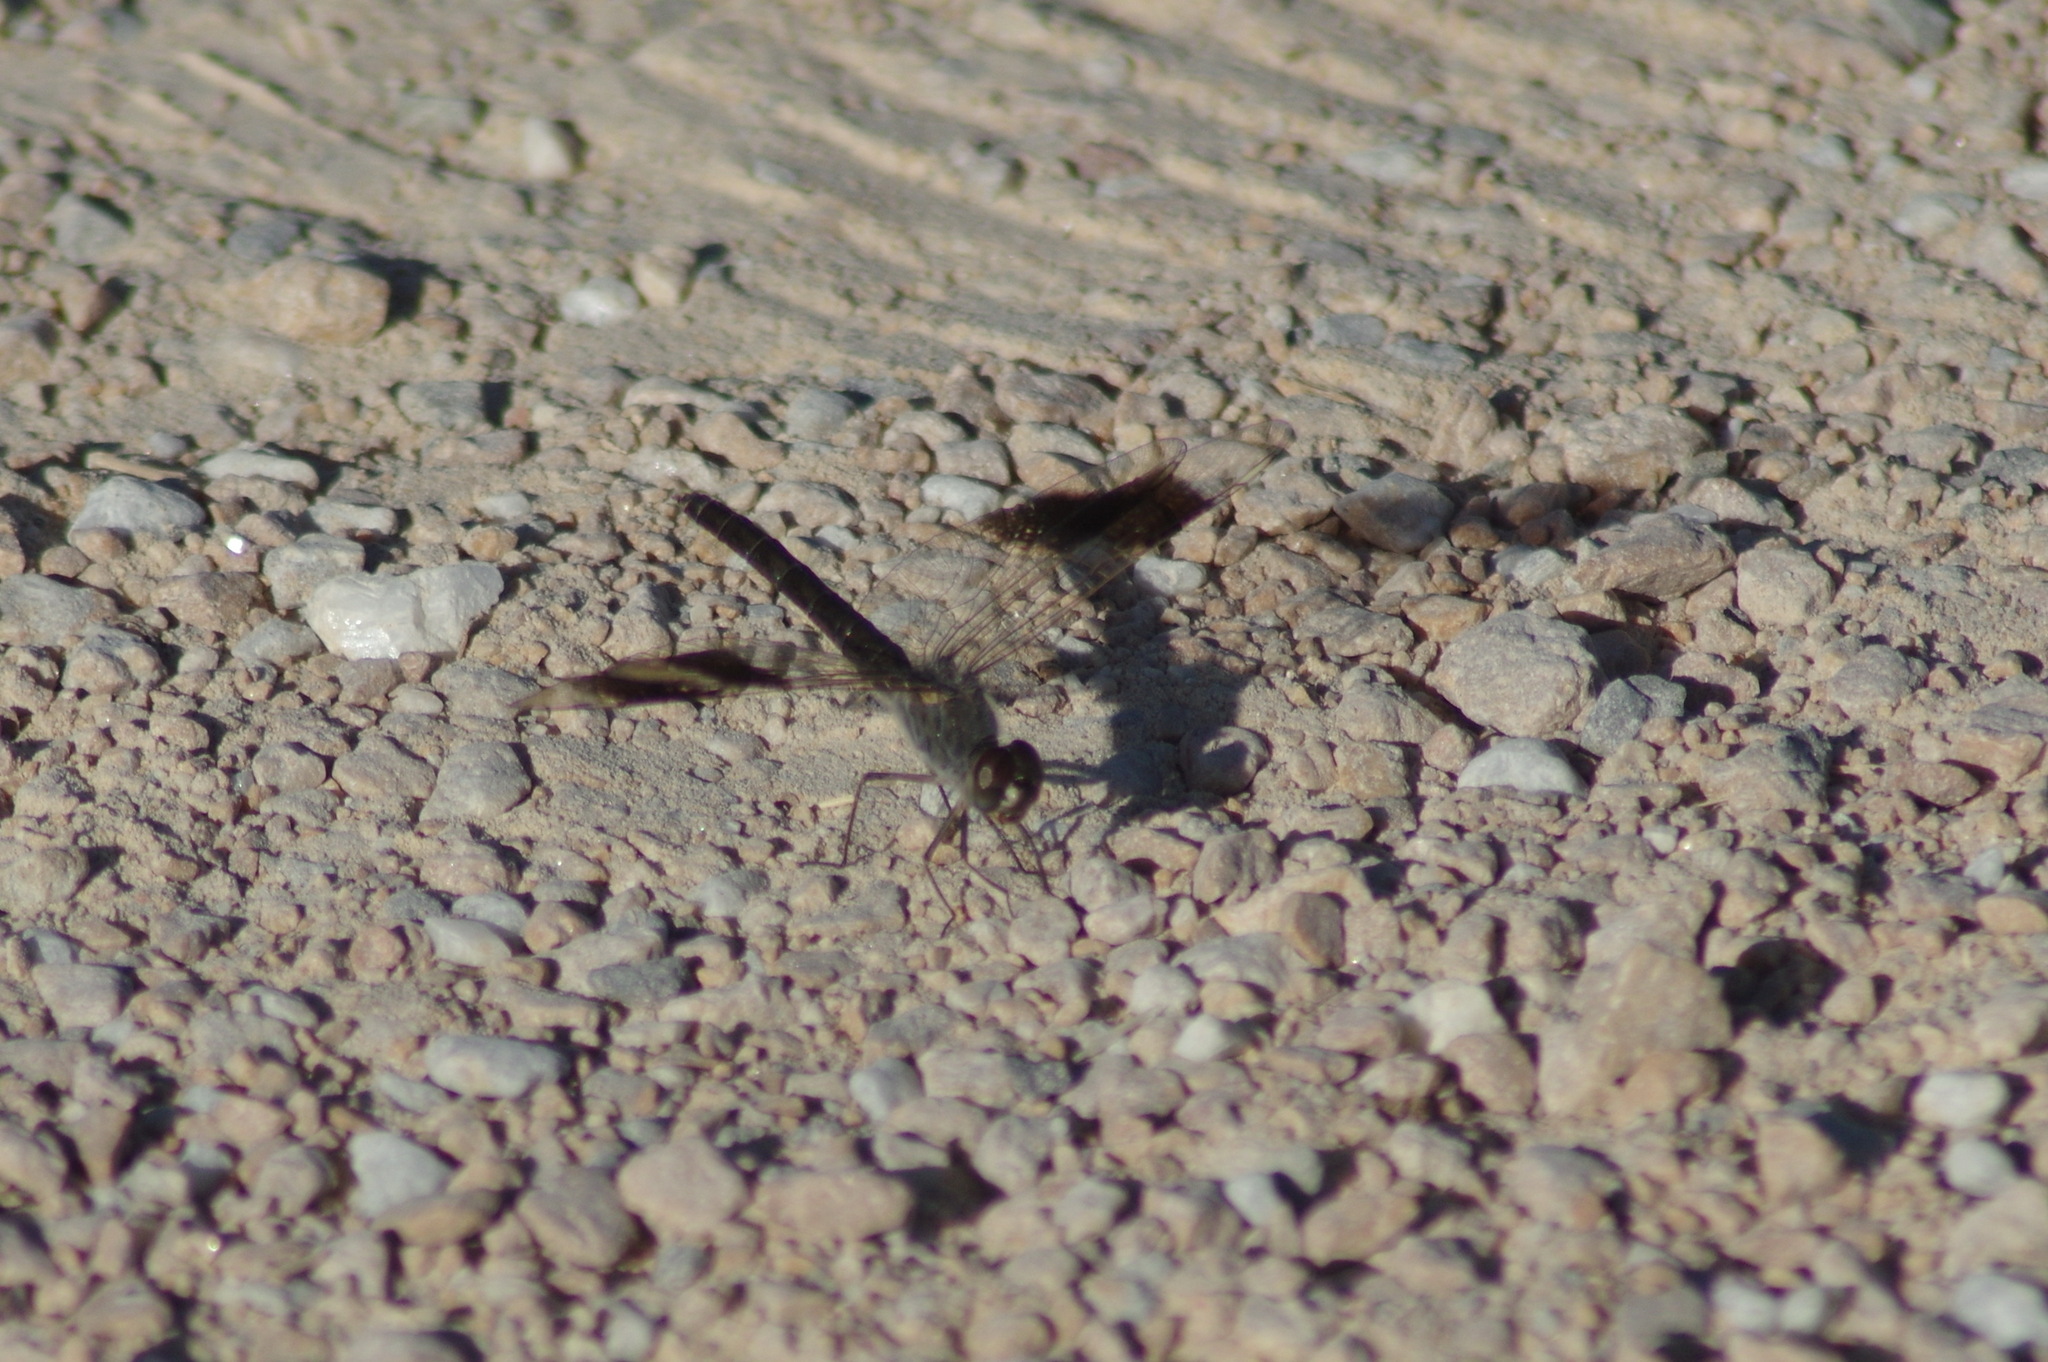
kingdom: Animalia
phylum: Arthropoda
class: Insecta
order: Odonata
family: Libellulidae
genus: Brachythemis
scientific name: Brachythemis impartita
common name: Banded groundling
